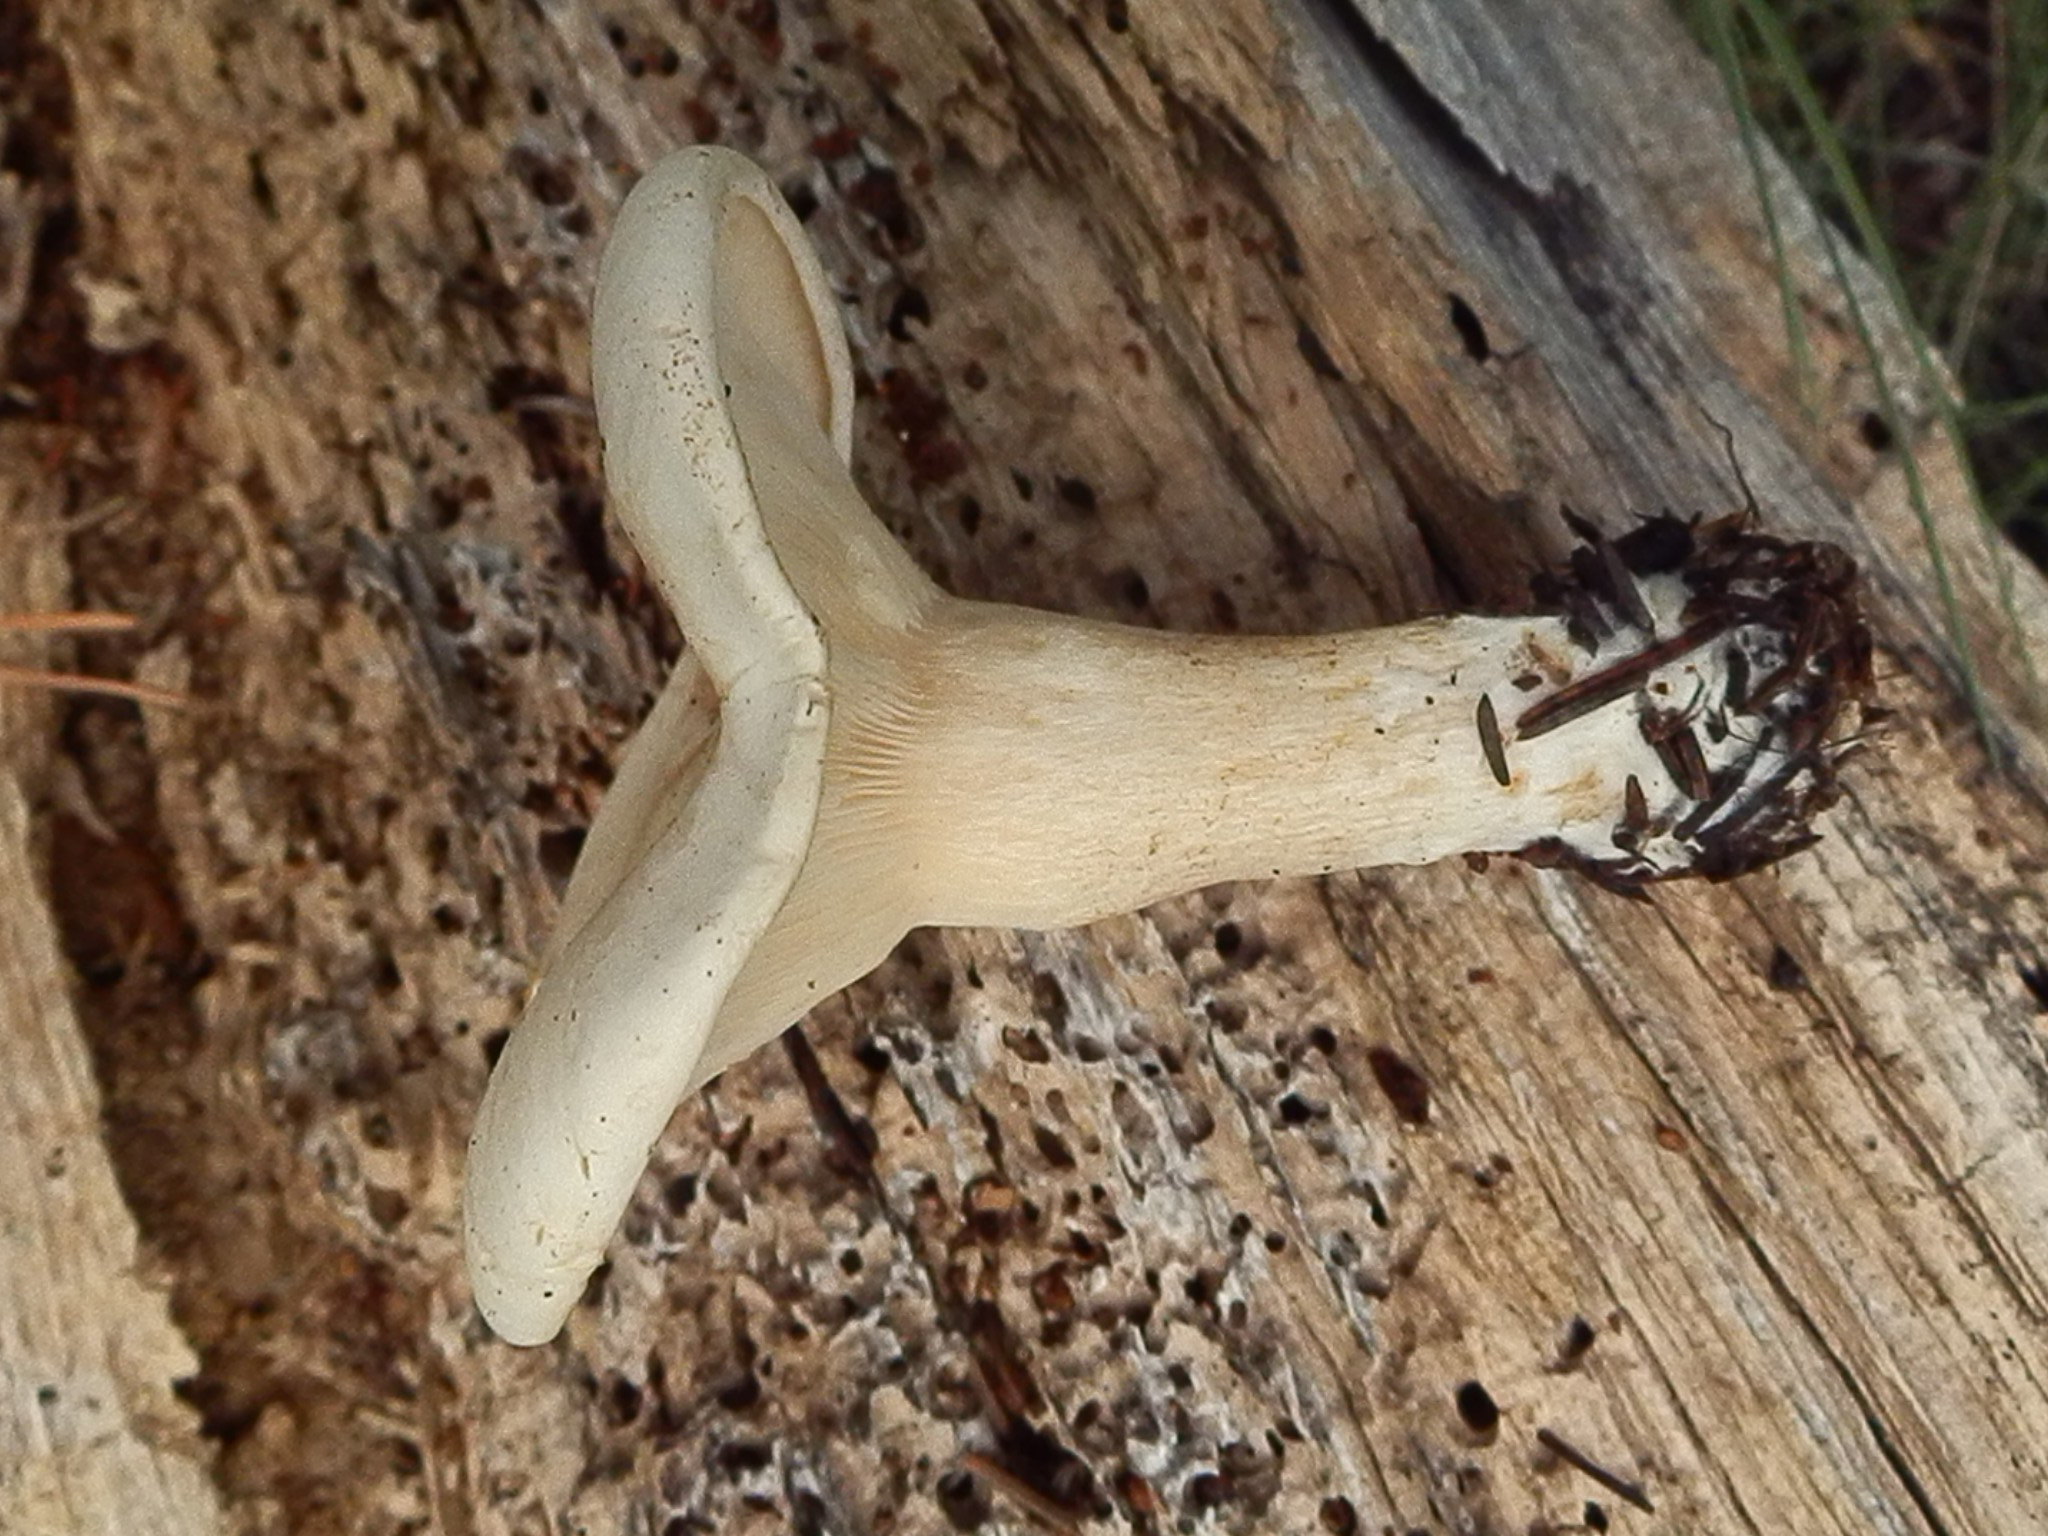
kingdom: Fungi
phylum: Basidiomycota
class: Agaricomycetes
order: Agaricales
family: Tricholomataceae
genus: Aspropaxillus
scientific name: Aspropaxillus septentrionalis
